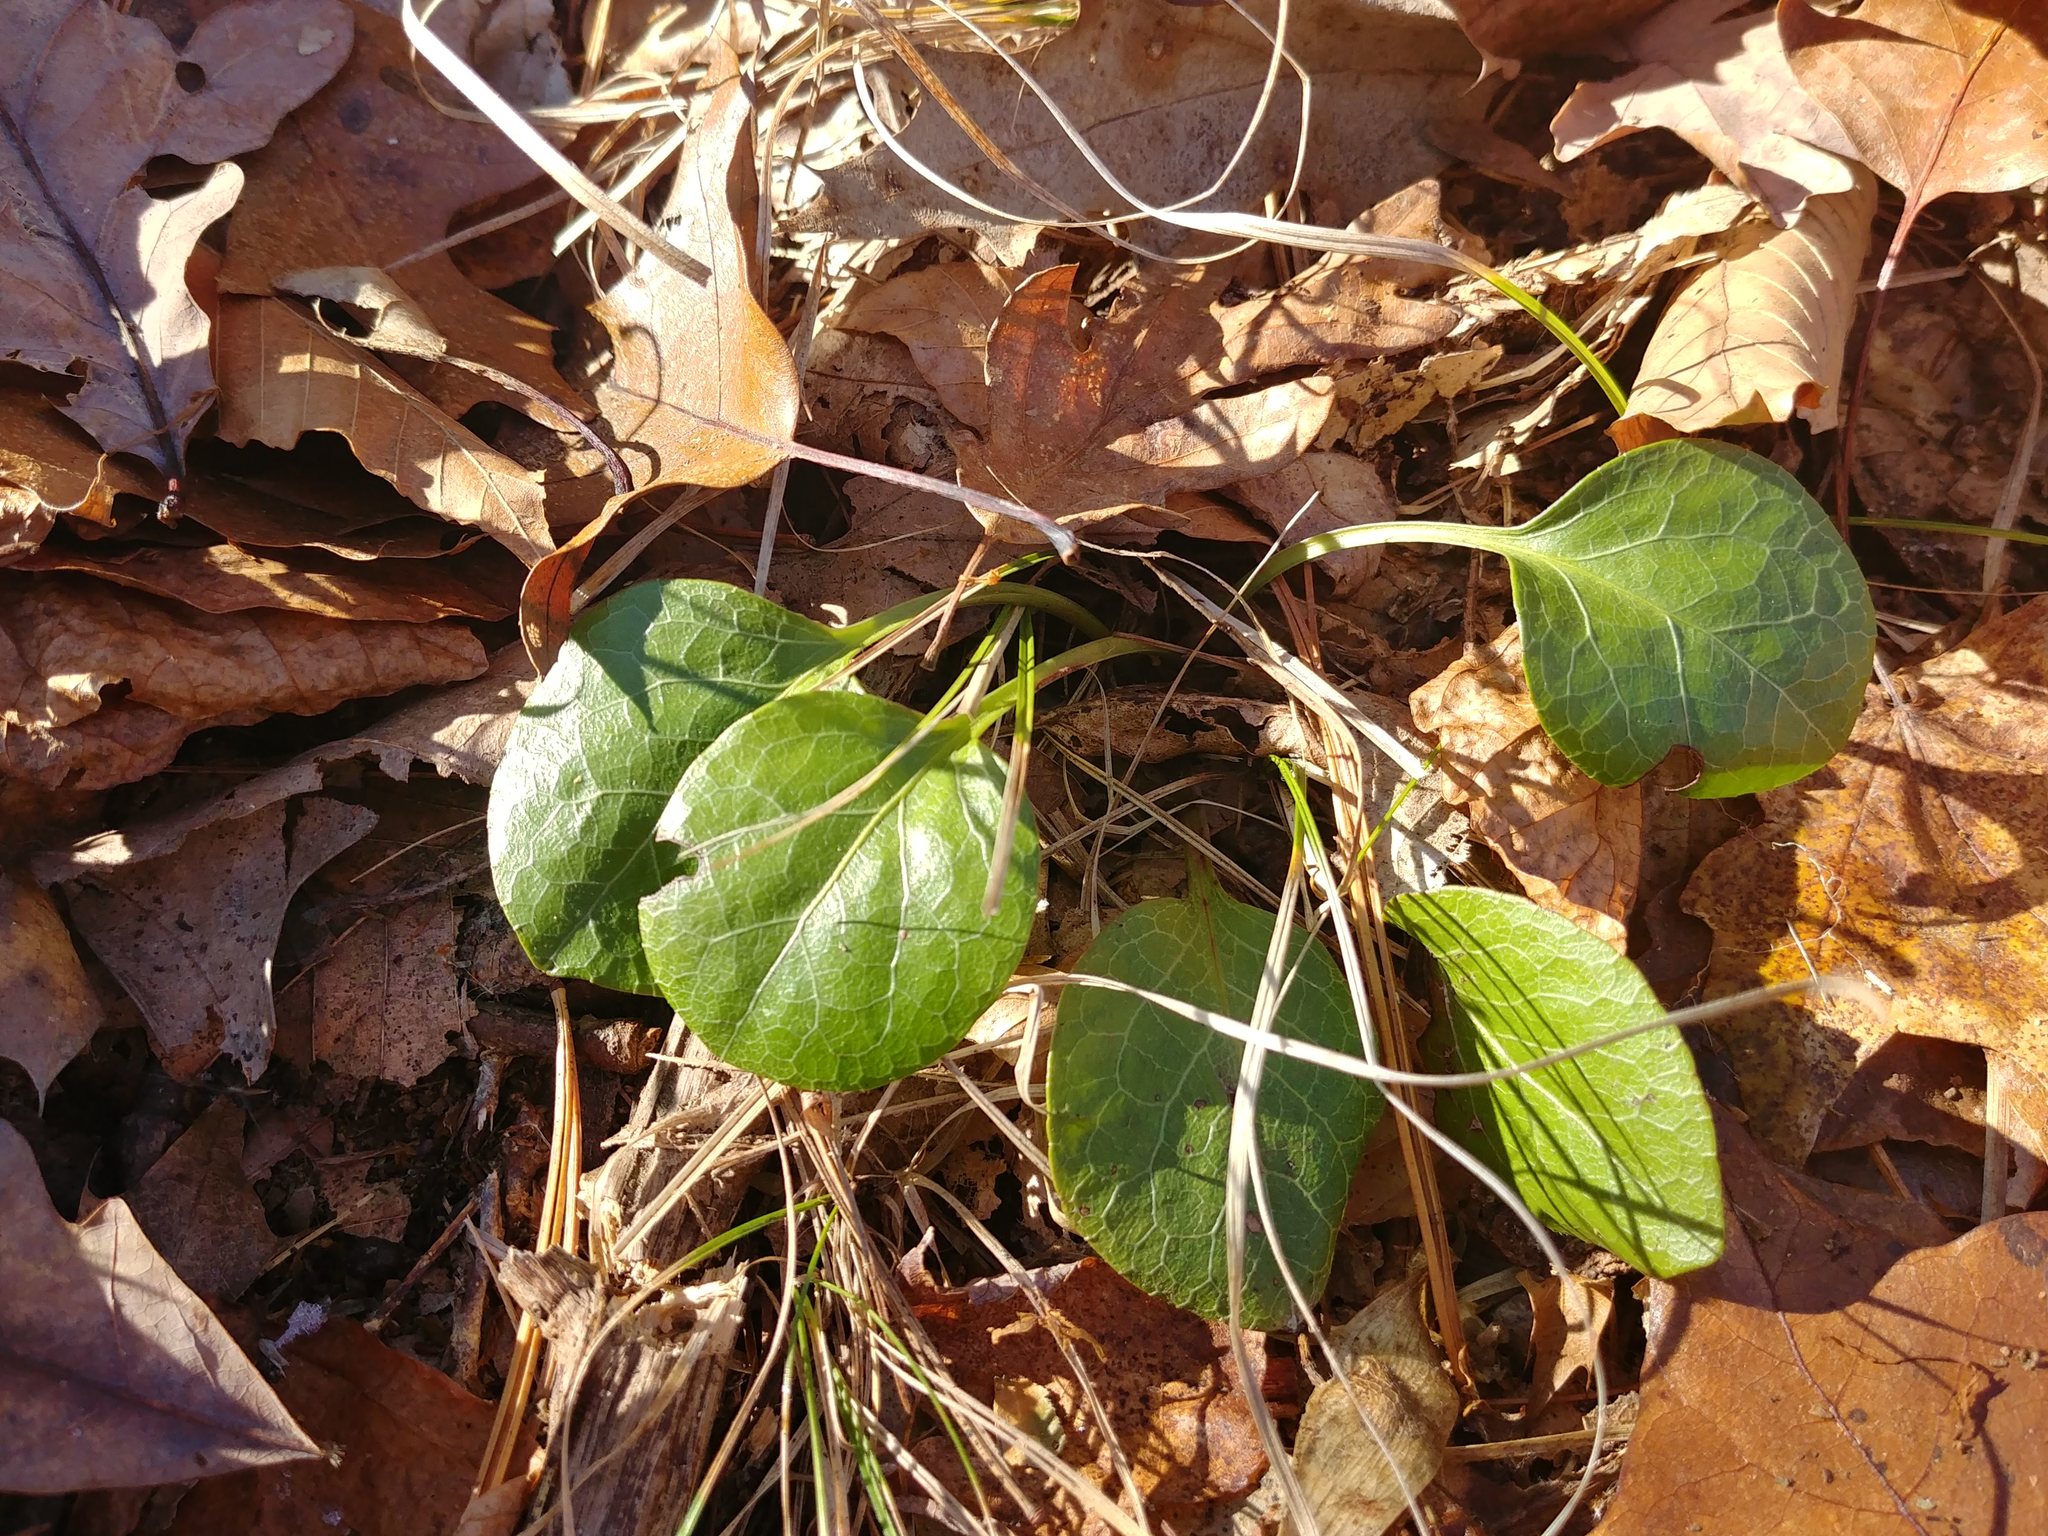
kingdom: Plantae
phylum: Tracheophyta
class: Magnoliopsida
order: Ericales
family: Ericaceae
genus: Pyrola
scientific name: Pyrola americana
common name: American wintergreen
